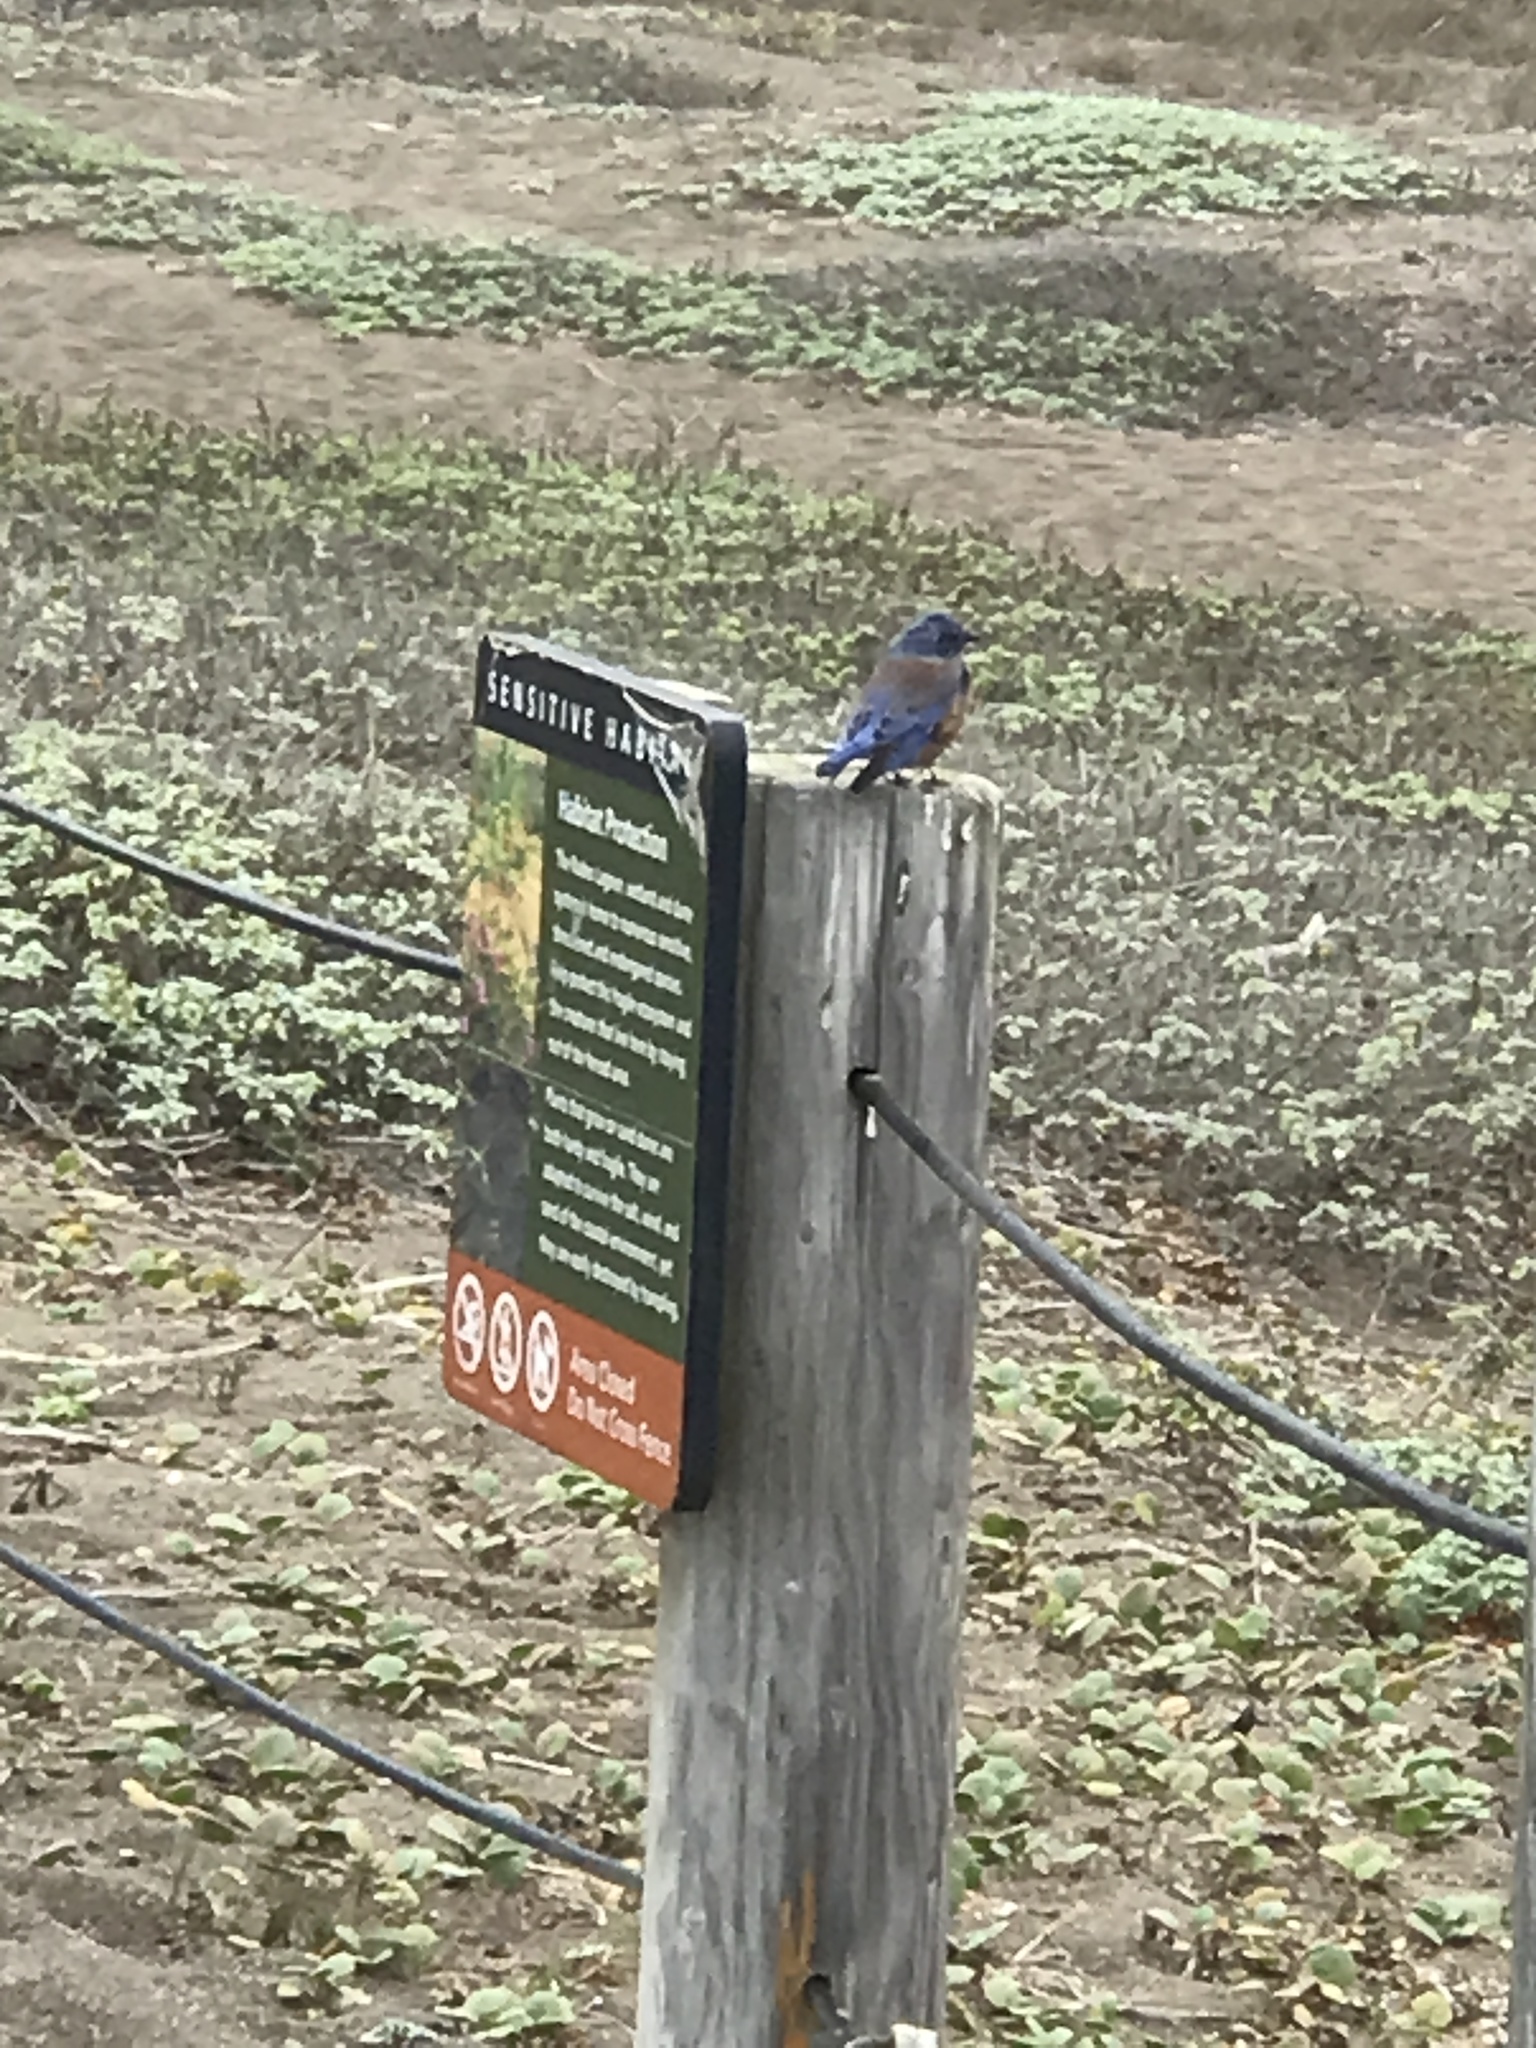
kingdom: Animalia
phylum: Chordata
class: Aves
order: Passeriformes
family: Turdidae
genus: Sialia
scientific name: Sialia mexicana
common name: Western bluebird
